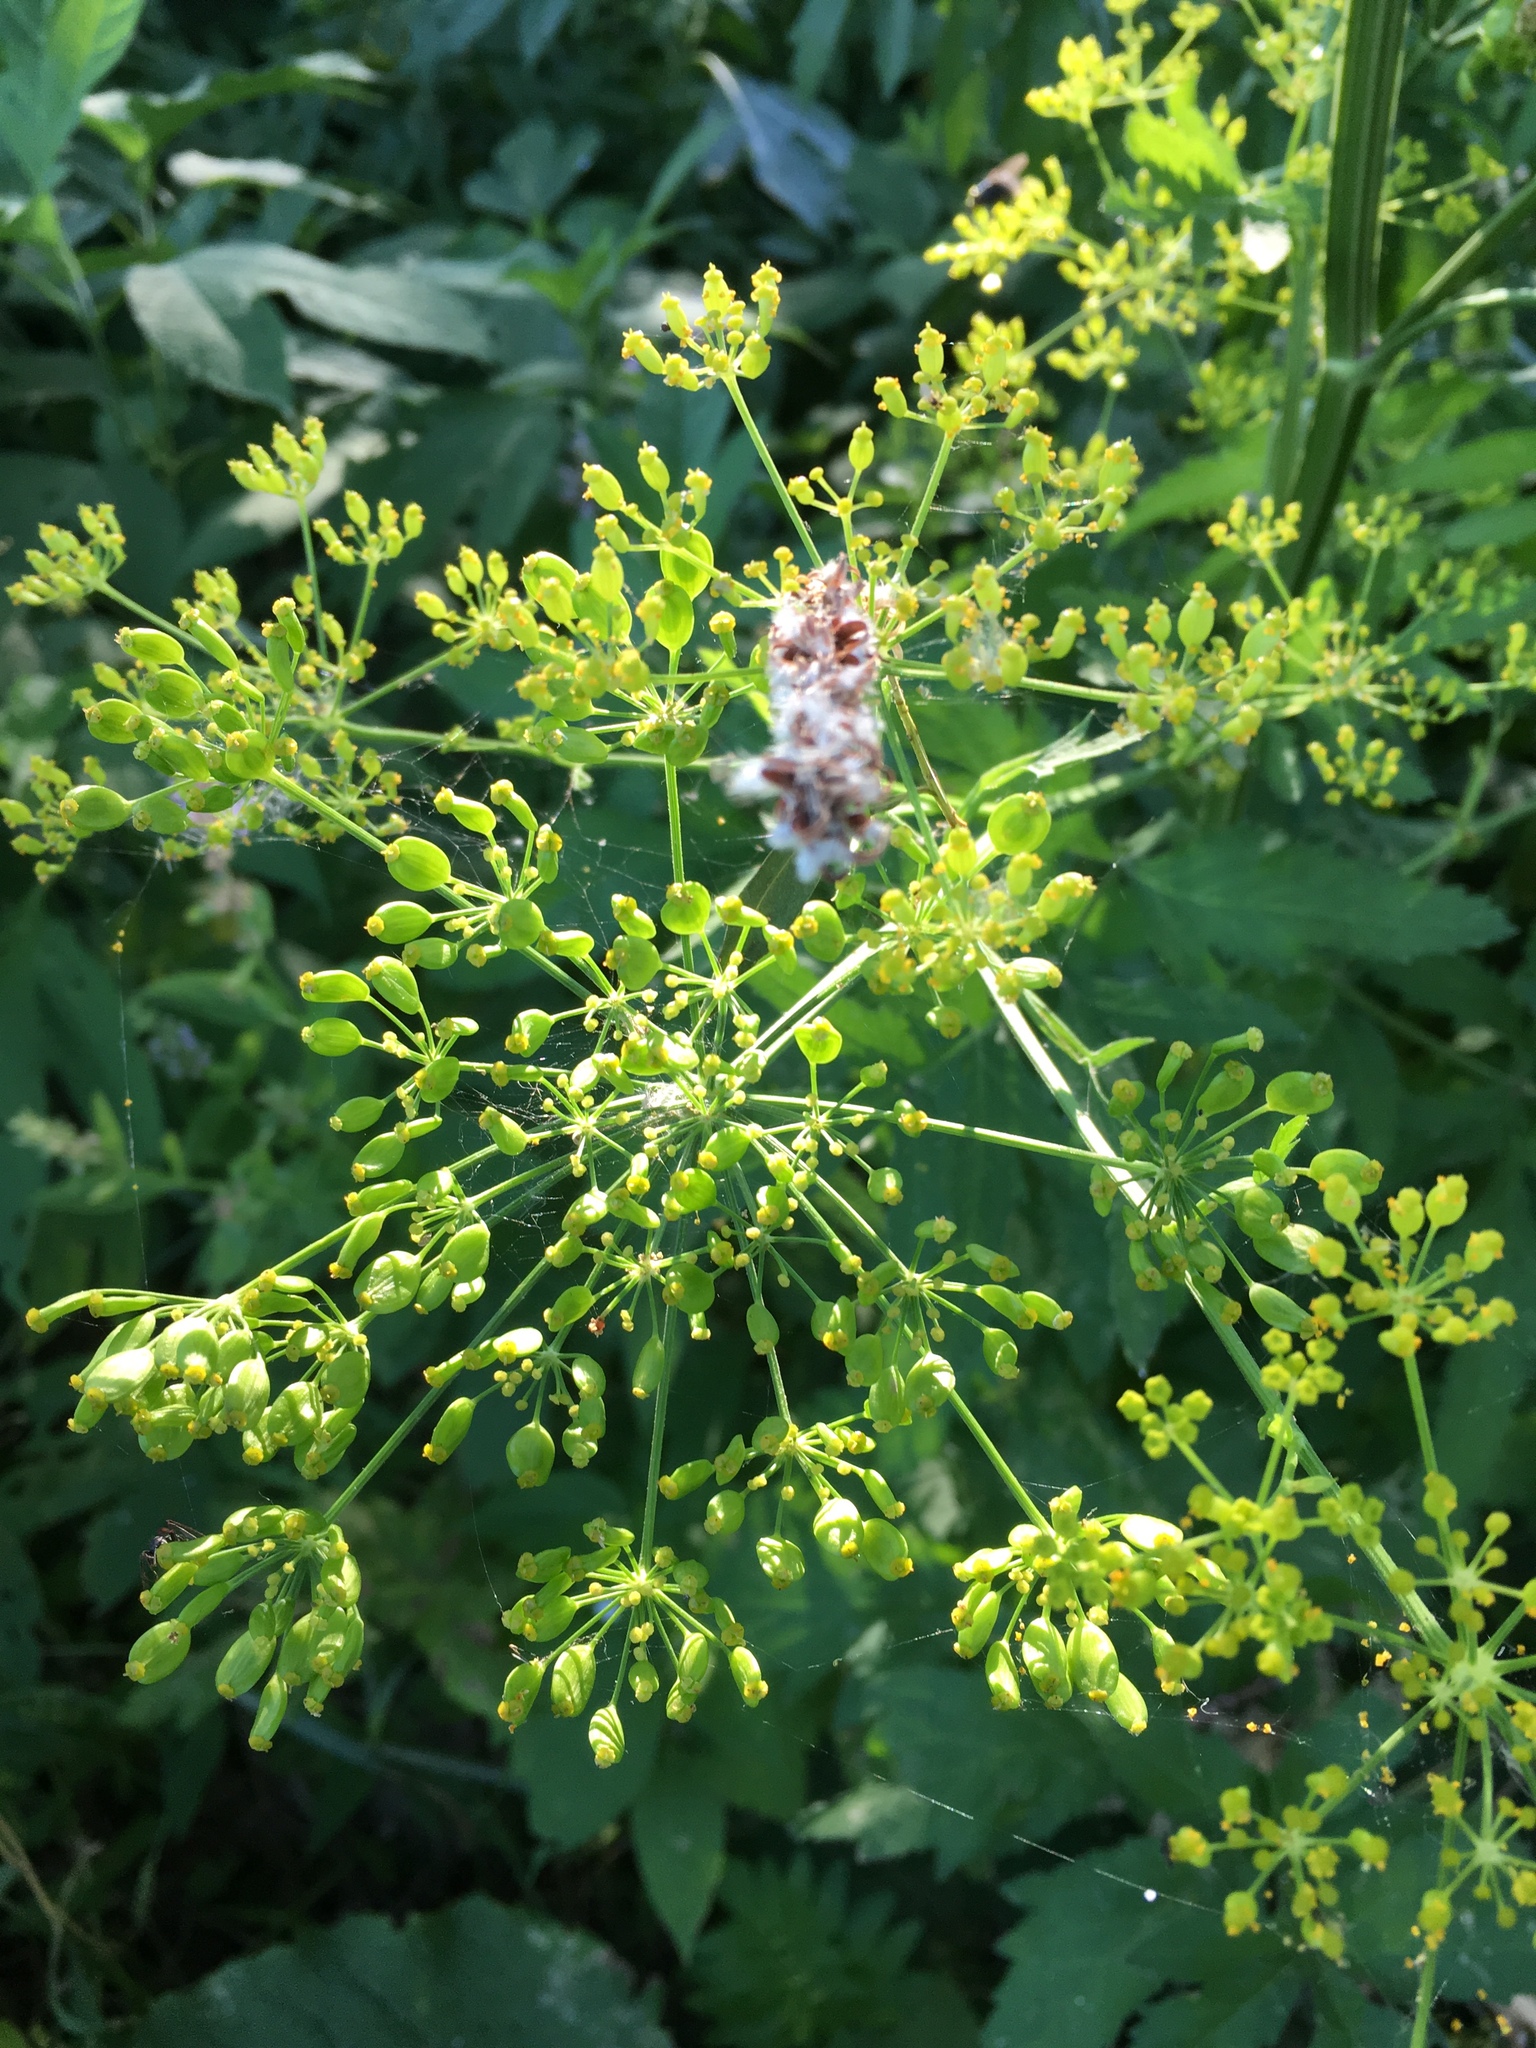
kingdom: Plantae
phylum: Tracheophyta
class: Magnoliopsida
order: Apiales
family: Apiaceae
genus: Pastinaca
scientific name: Pastinaca sativa
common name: Wild parsnip
